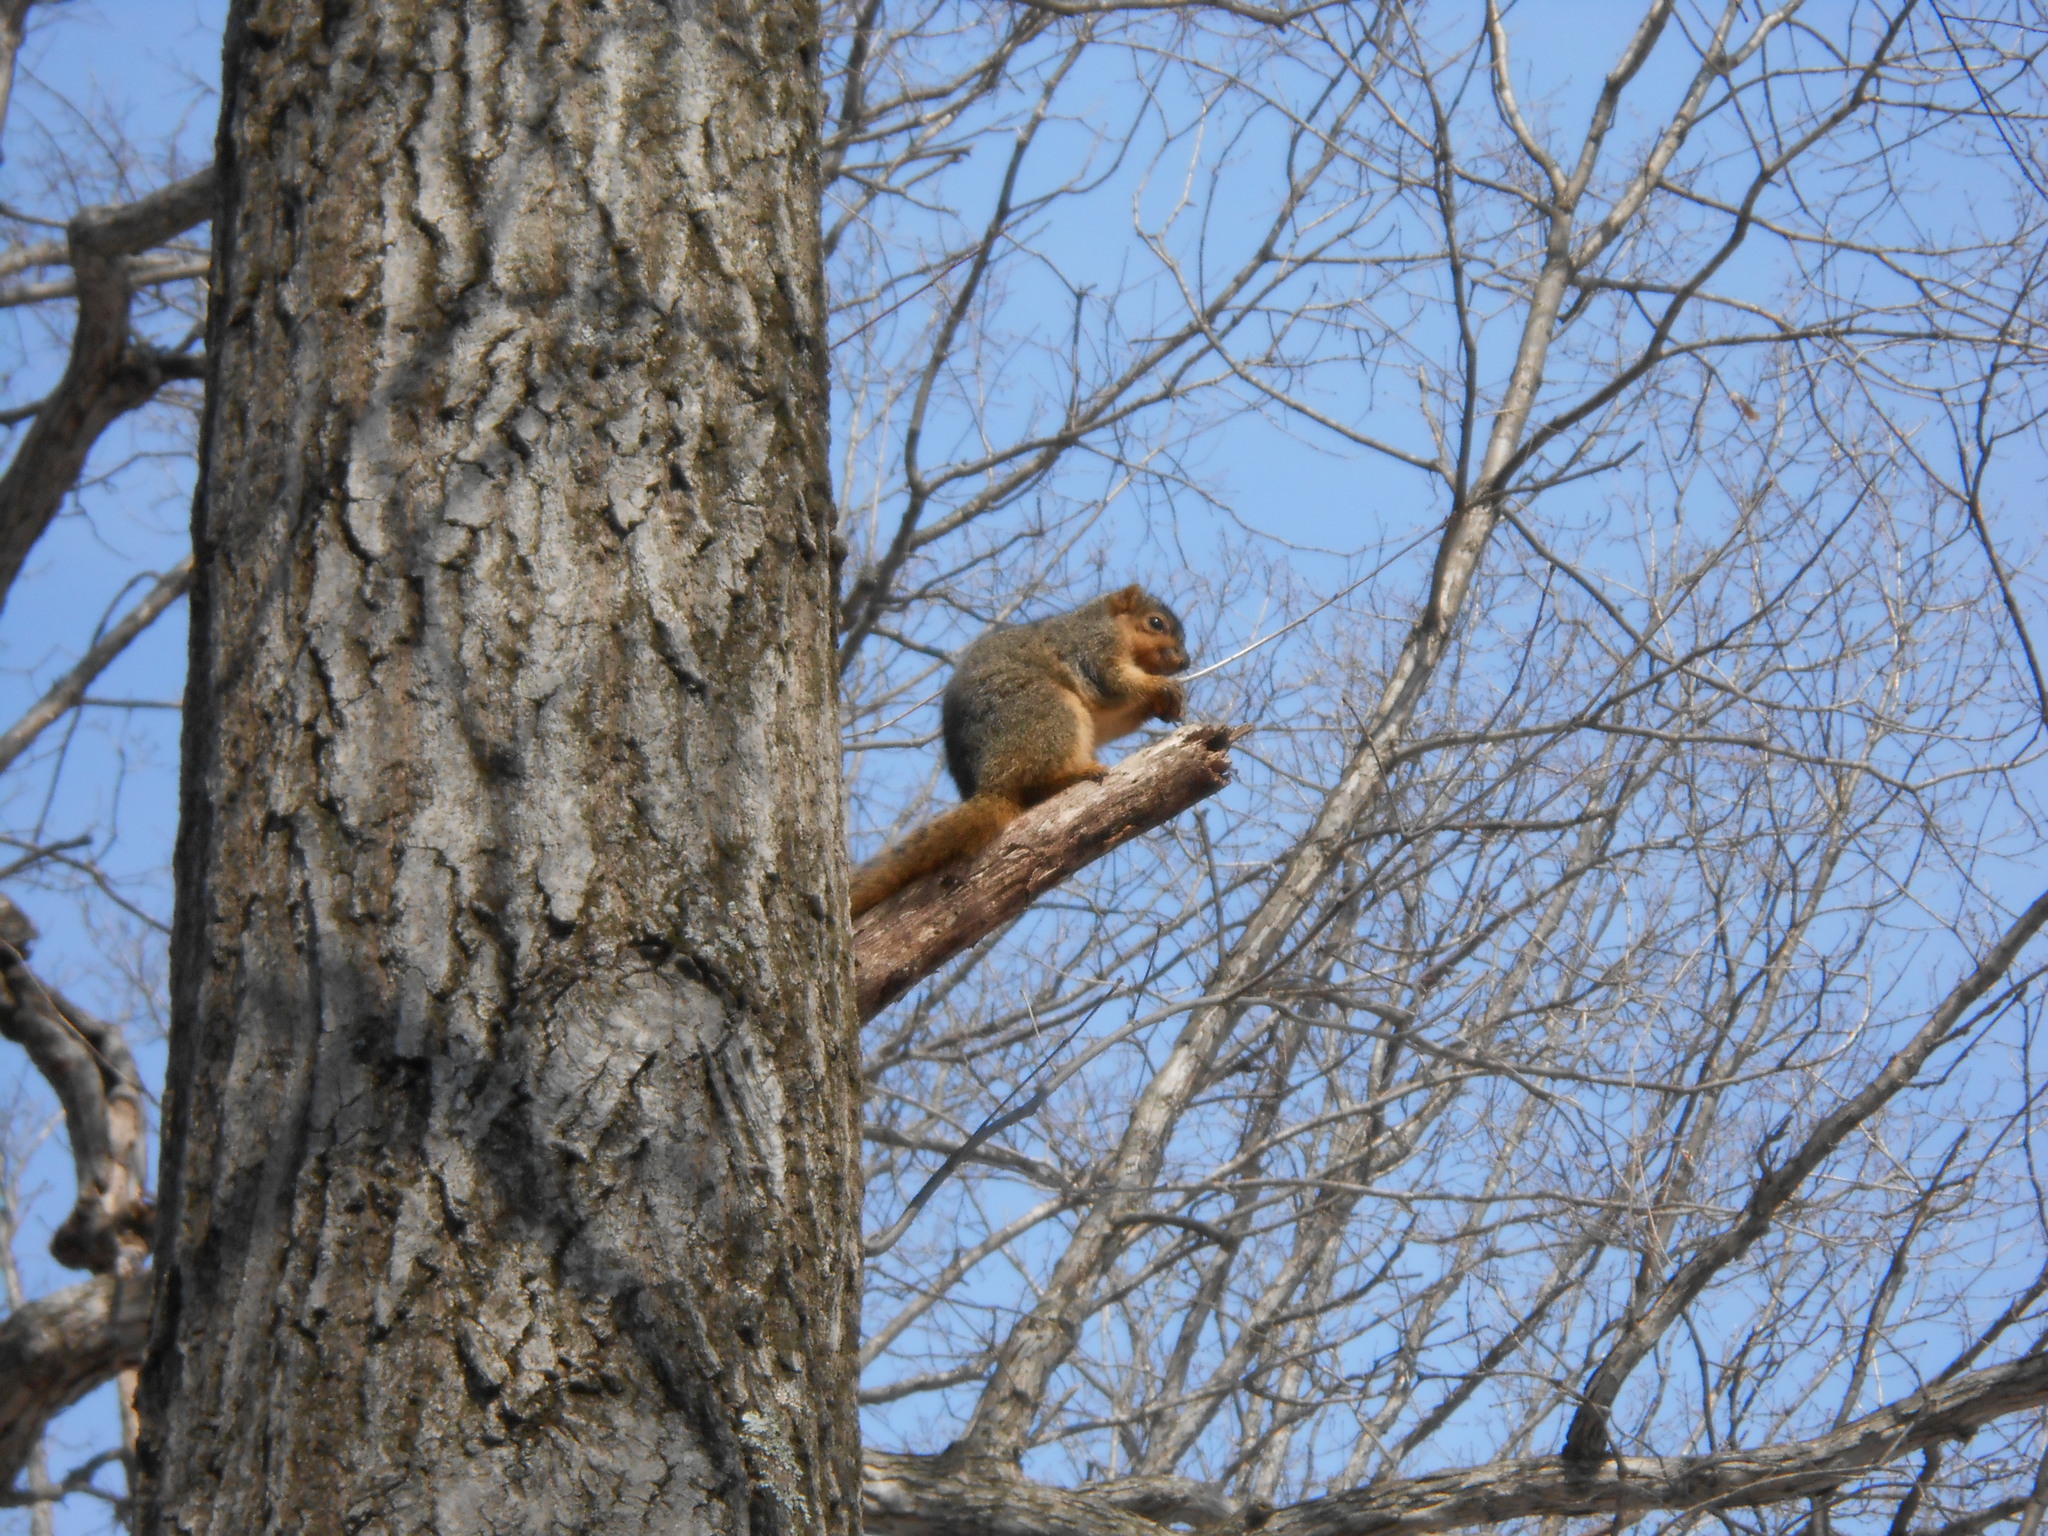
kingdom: Animalia
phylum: Chordata
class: Mammalia
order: Rodentia
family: Sciuridae
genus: Sciurus
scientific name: Sciurus niger
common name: Fox squirrel
